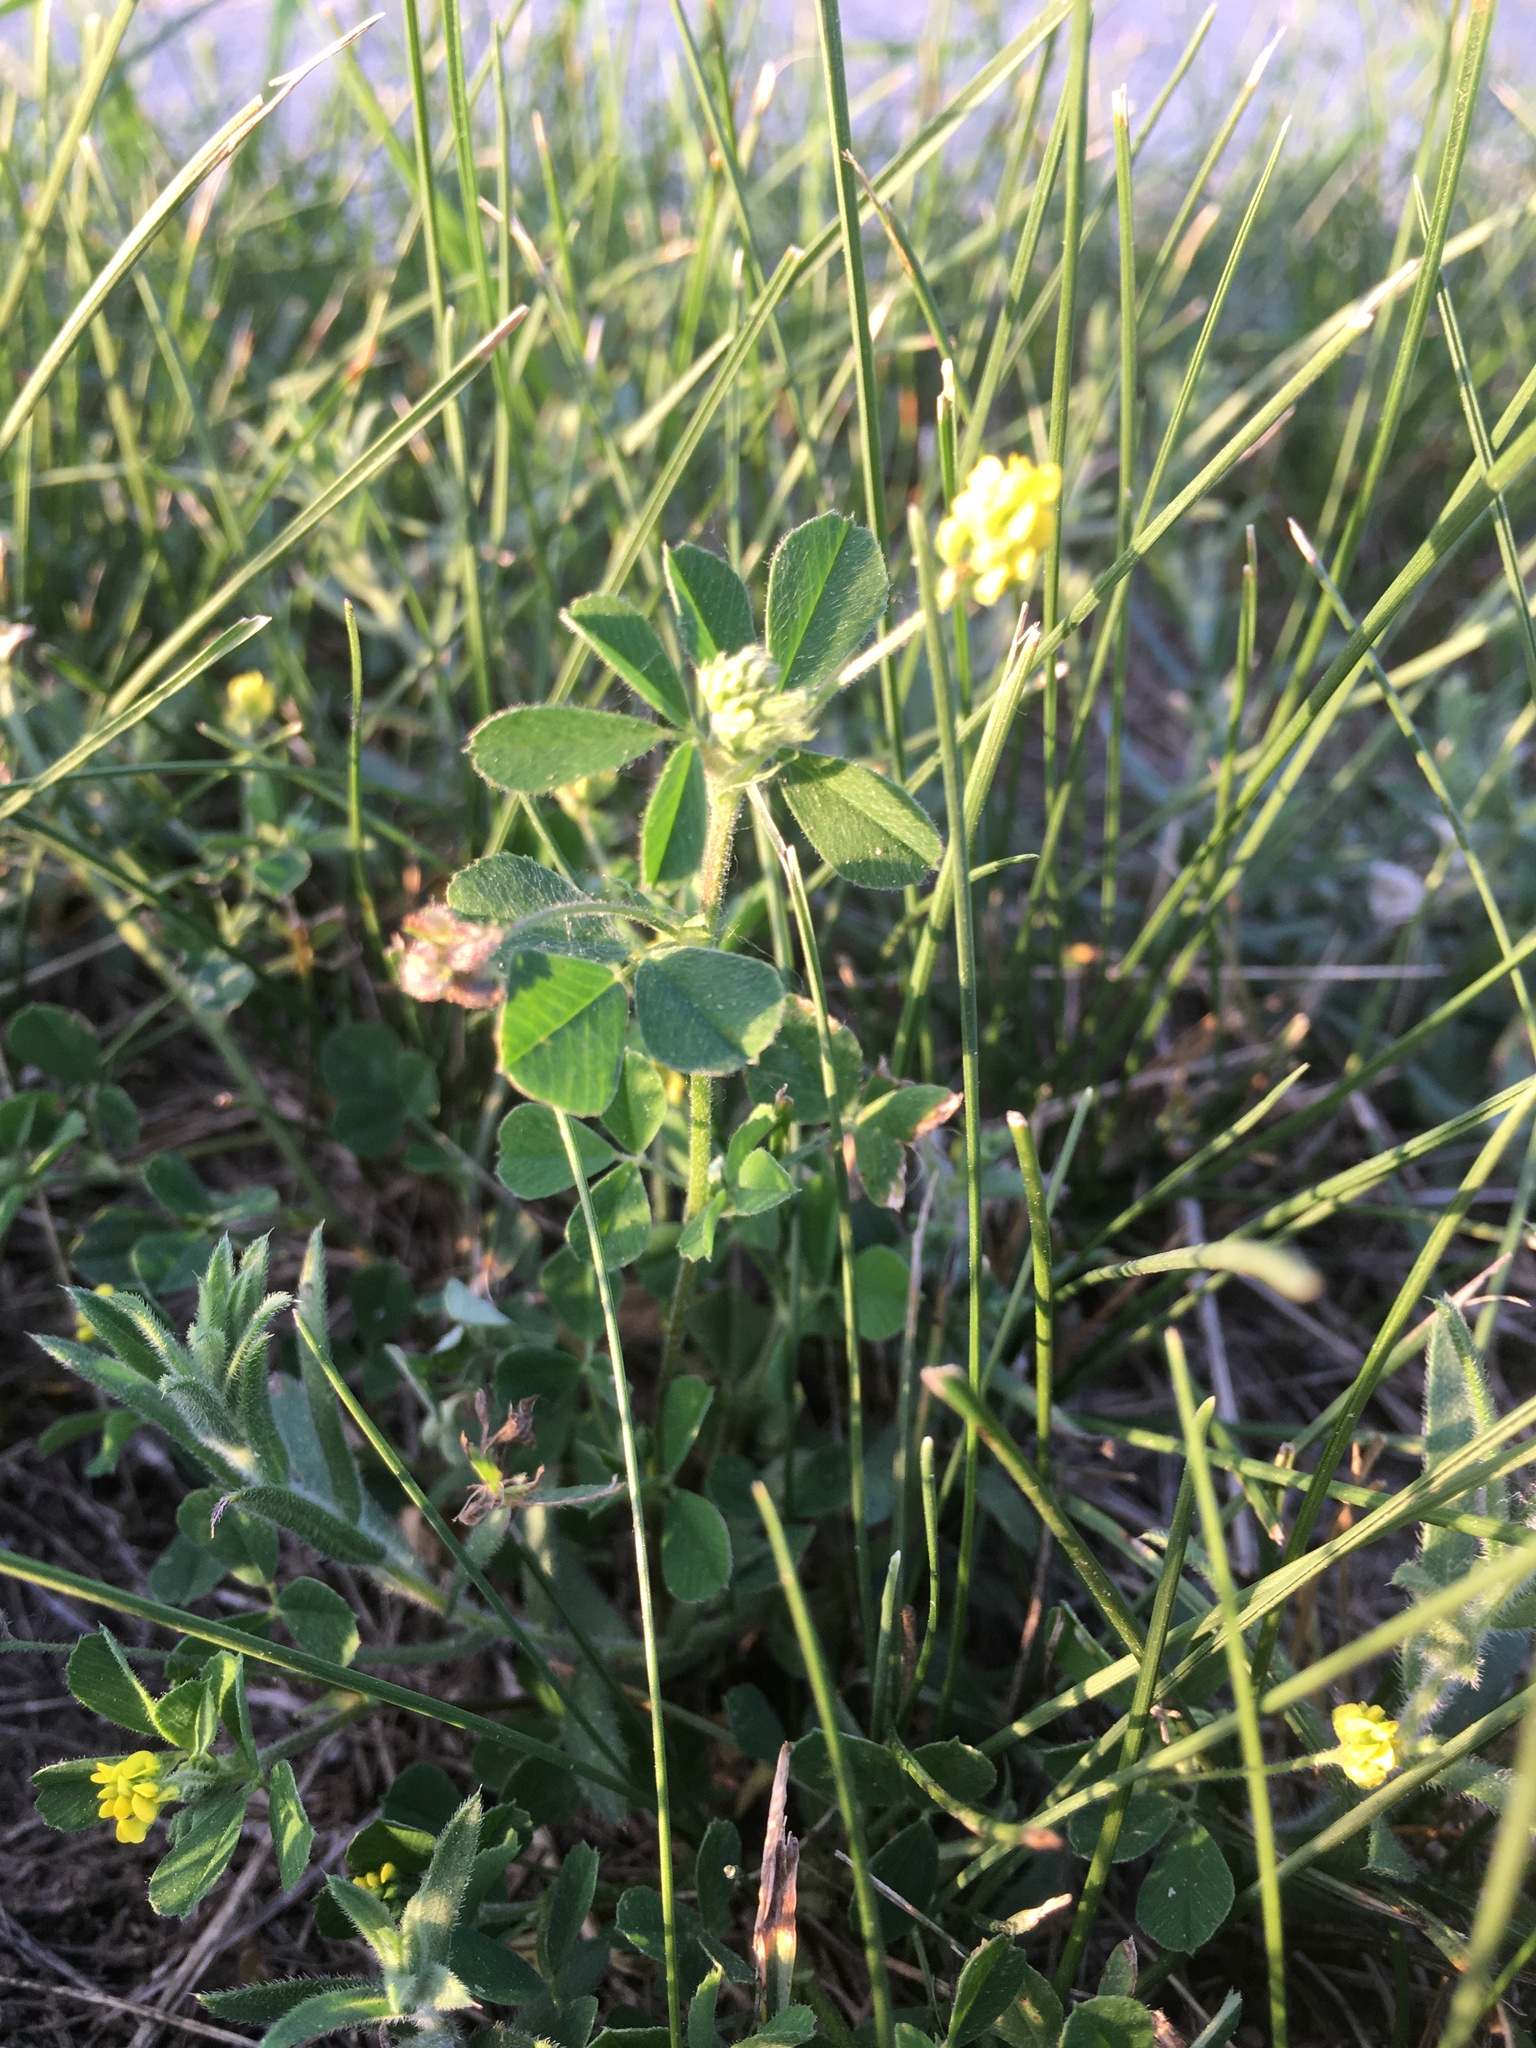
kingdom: Plantae
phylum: Tracheophyta
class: Magnoliopsida
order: Fabales
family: Fabaceae
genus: Medicago
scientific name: Medicago lupulina
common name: Black medick
